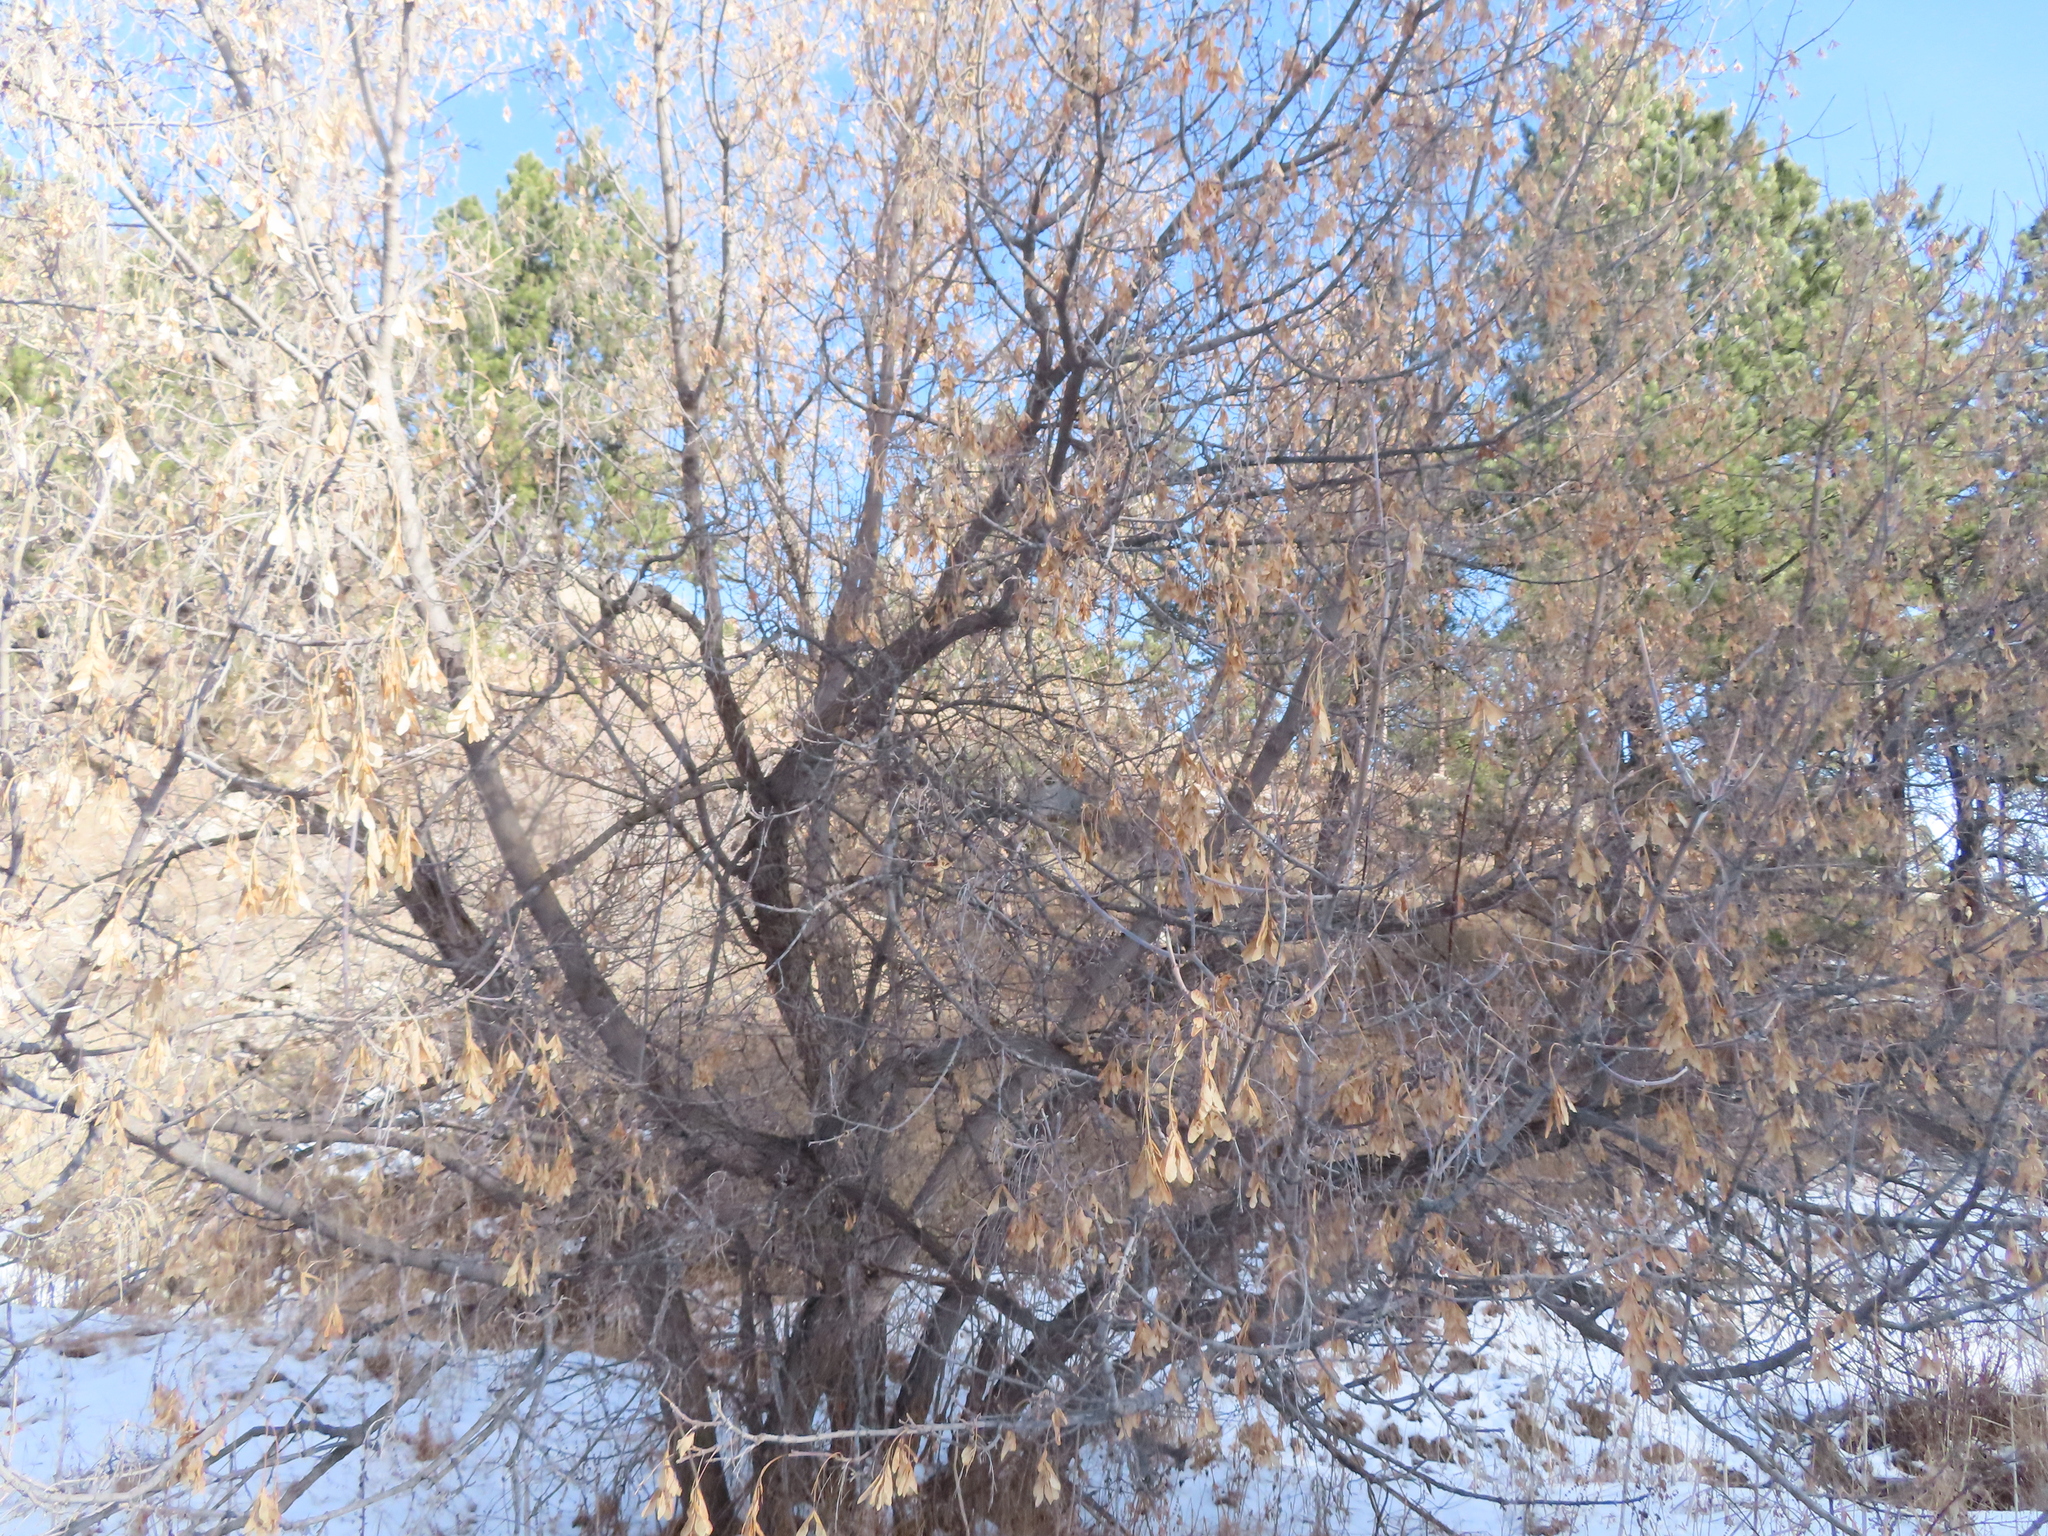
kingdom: Plantae
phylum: Tracheophyta
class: Magnoliopsida
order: Sapindales
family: Sapindaceae
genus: Acer
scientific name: Acer negundo
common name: Ashleaf maple
